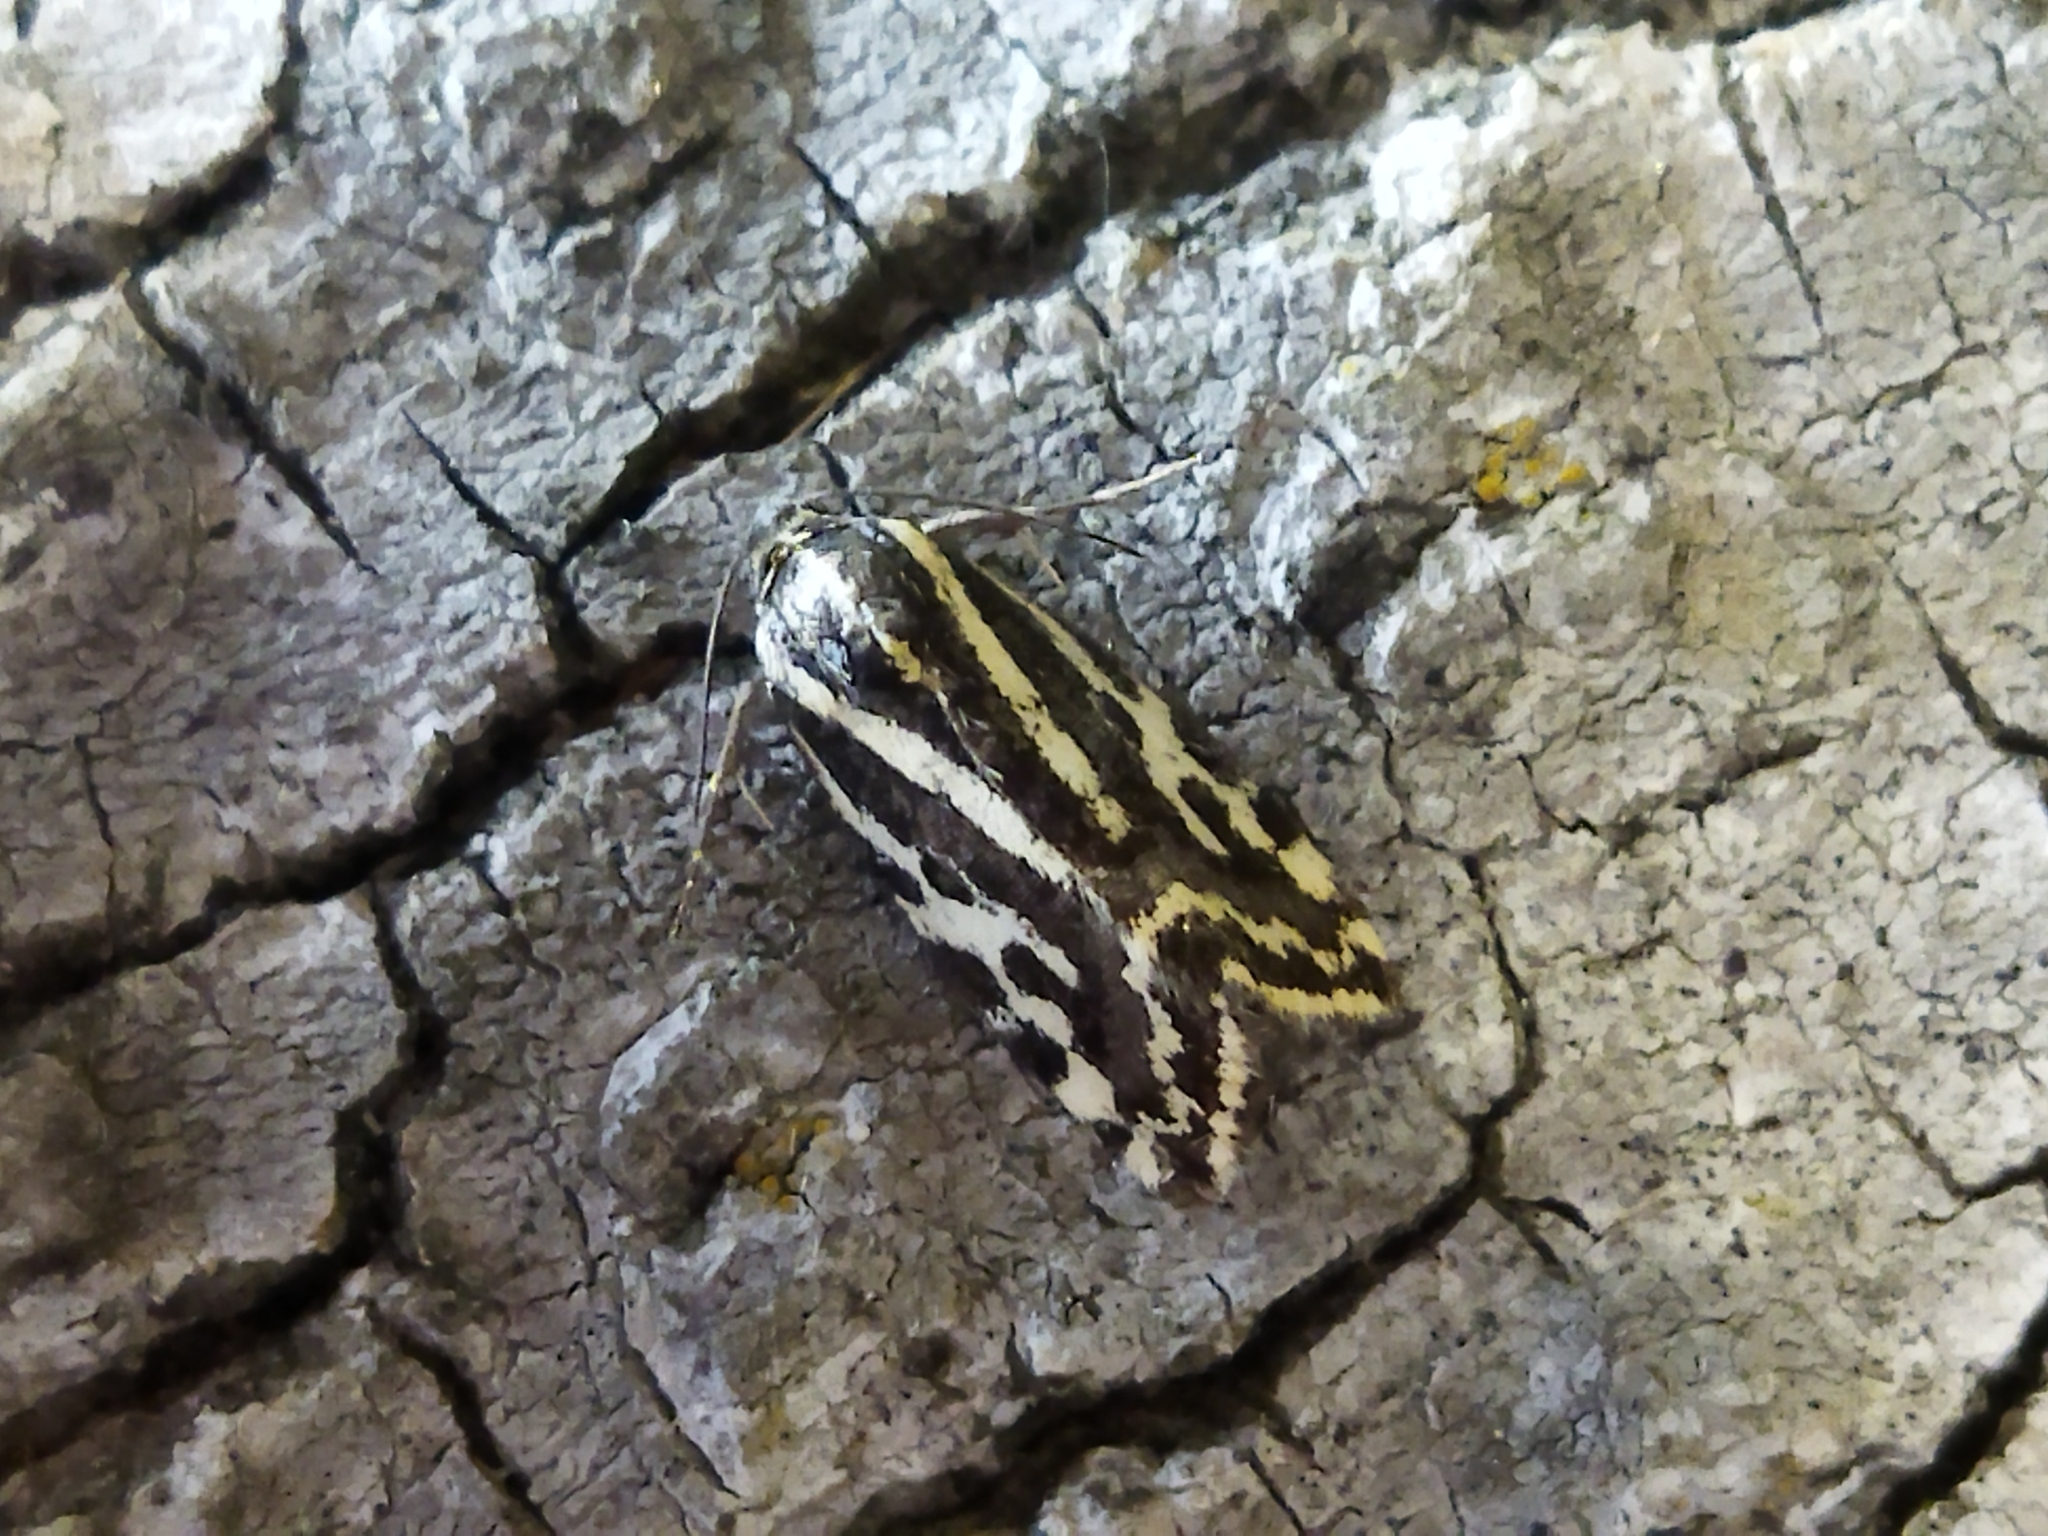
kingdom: Animalia
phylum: Arthropoda
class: Insecta
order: Lepidoptera
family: Noctuidae
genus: Acontia
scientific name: Acontia trabealis
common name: Spotted sulphur
